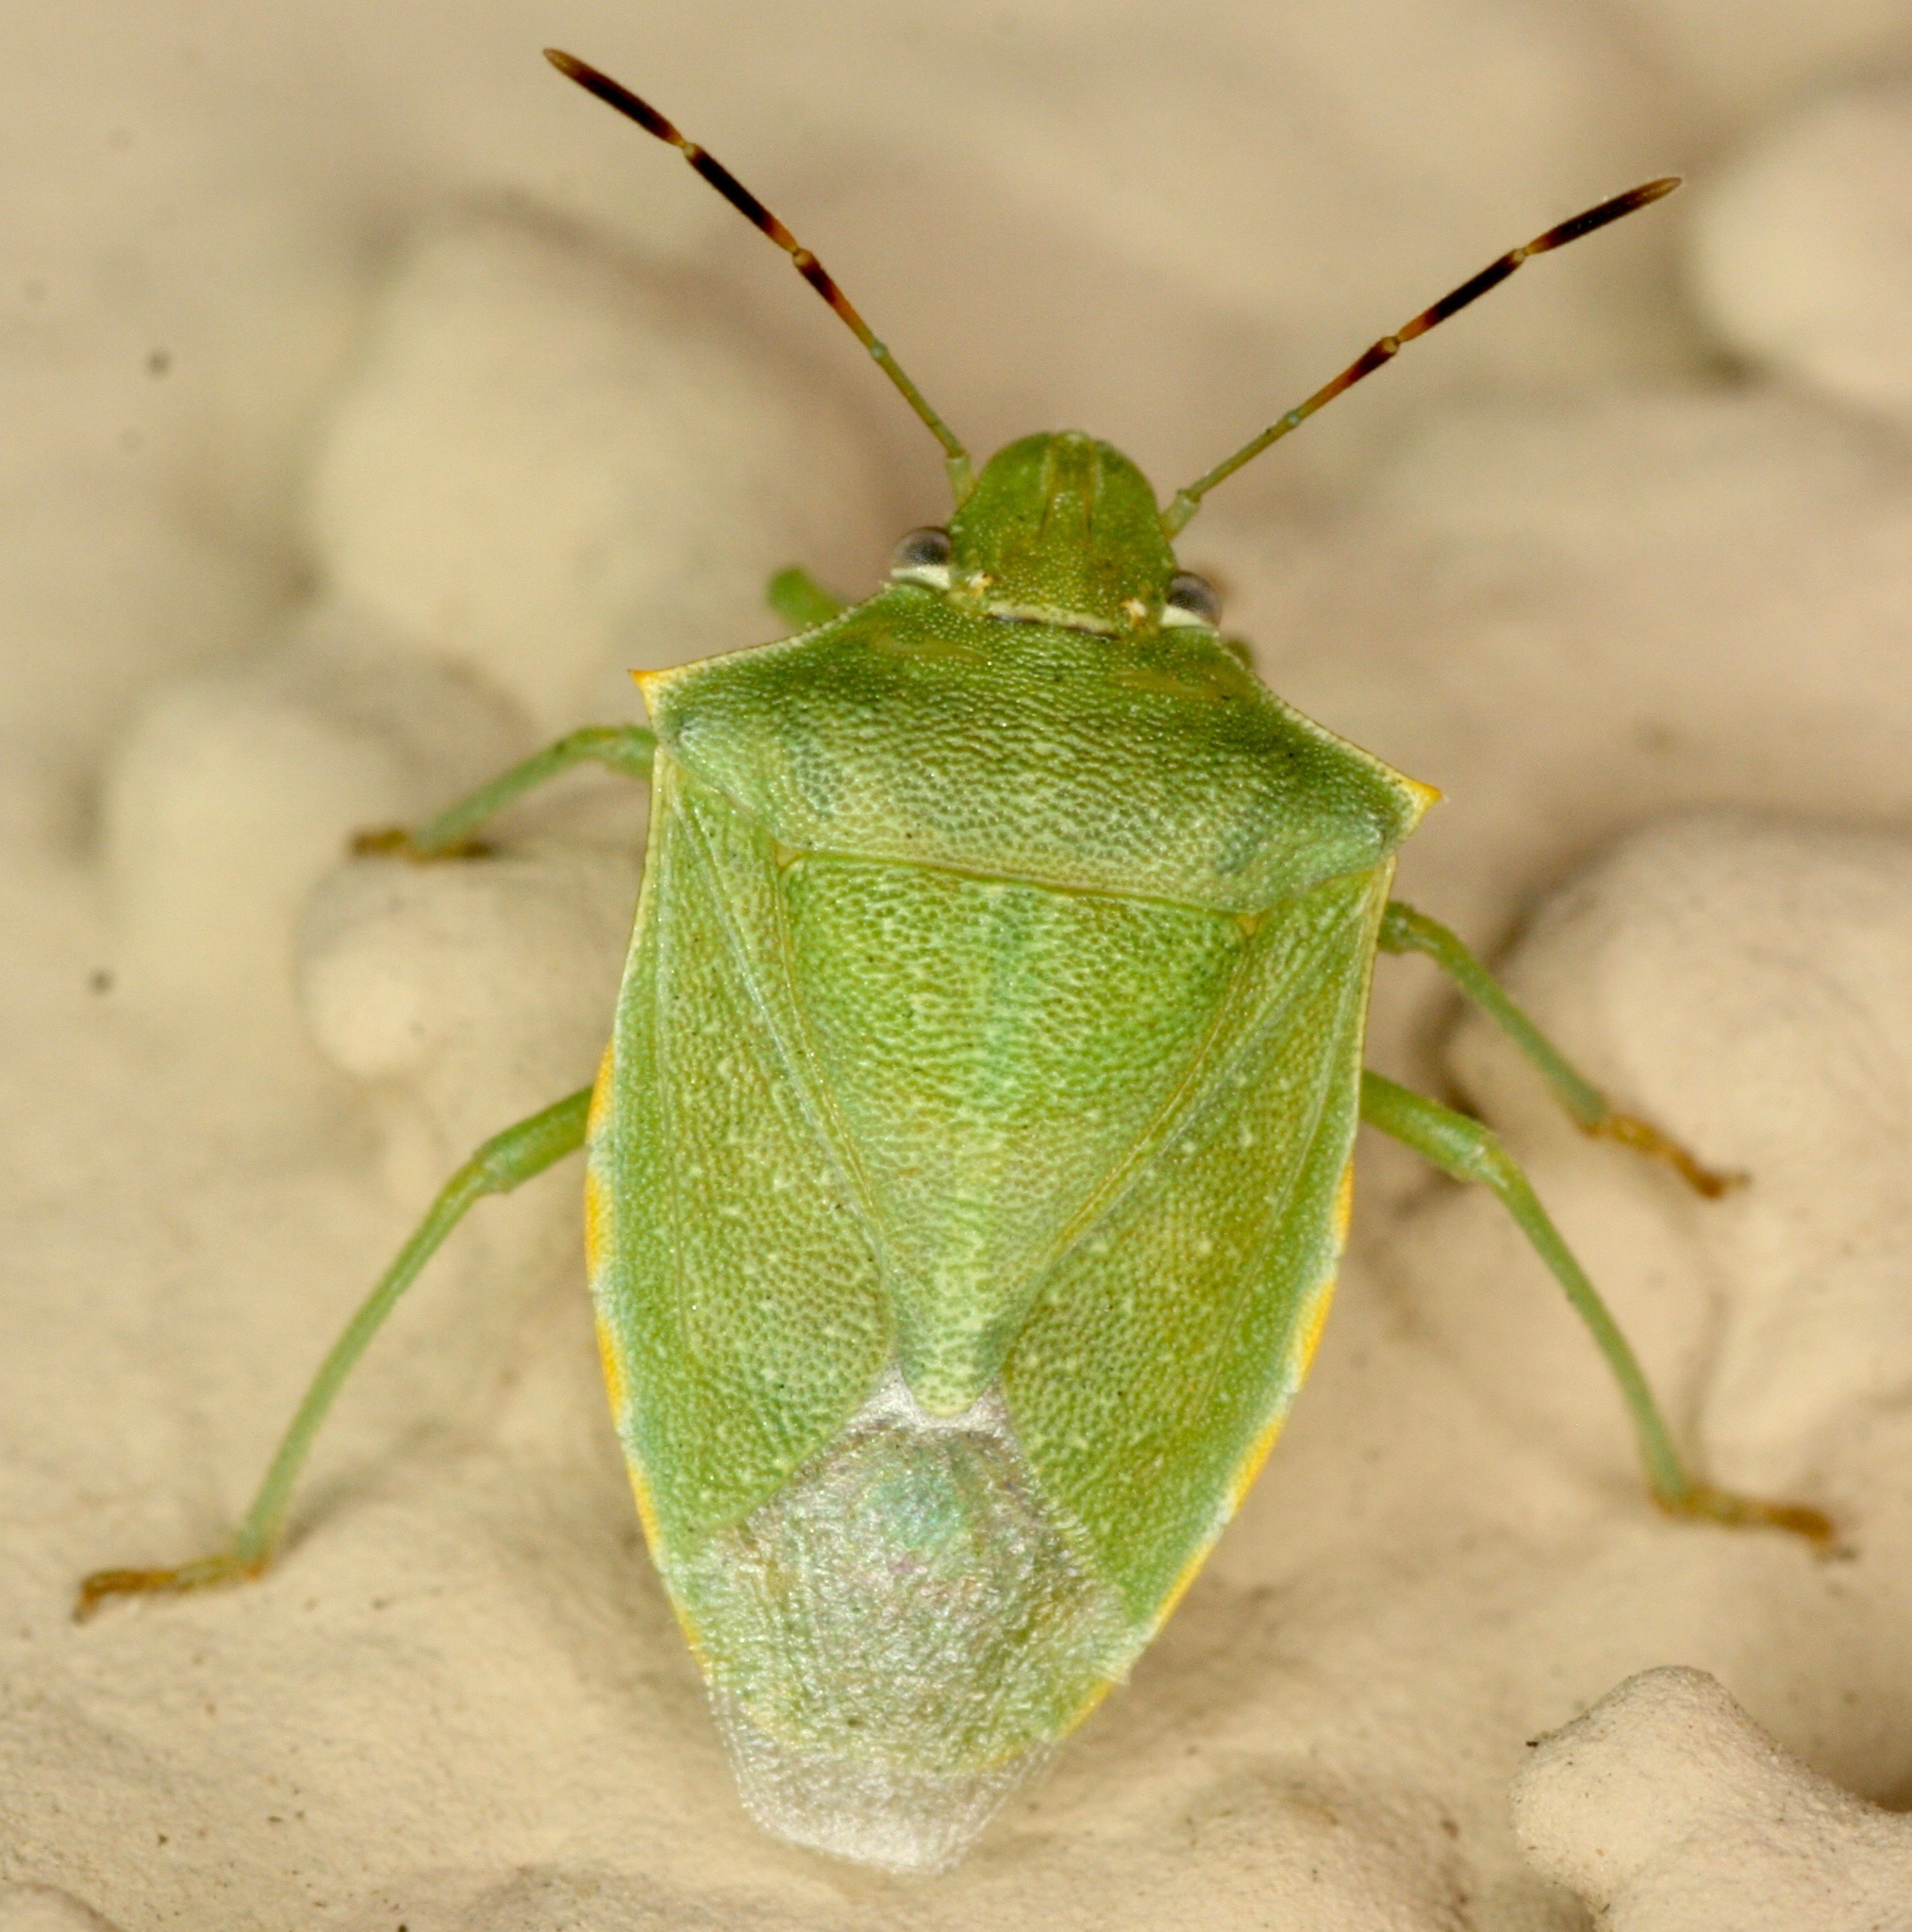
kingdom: Animalia
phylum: Arthropoda
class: Insecta
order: Hemiptera
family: Pentatomidae
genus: Thyanta
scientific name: Thyanta custator
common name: Stink bug
